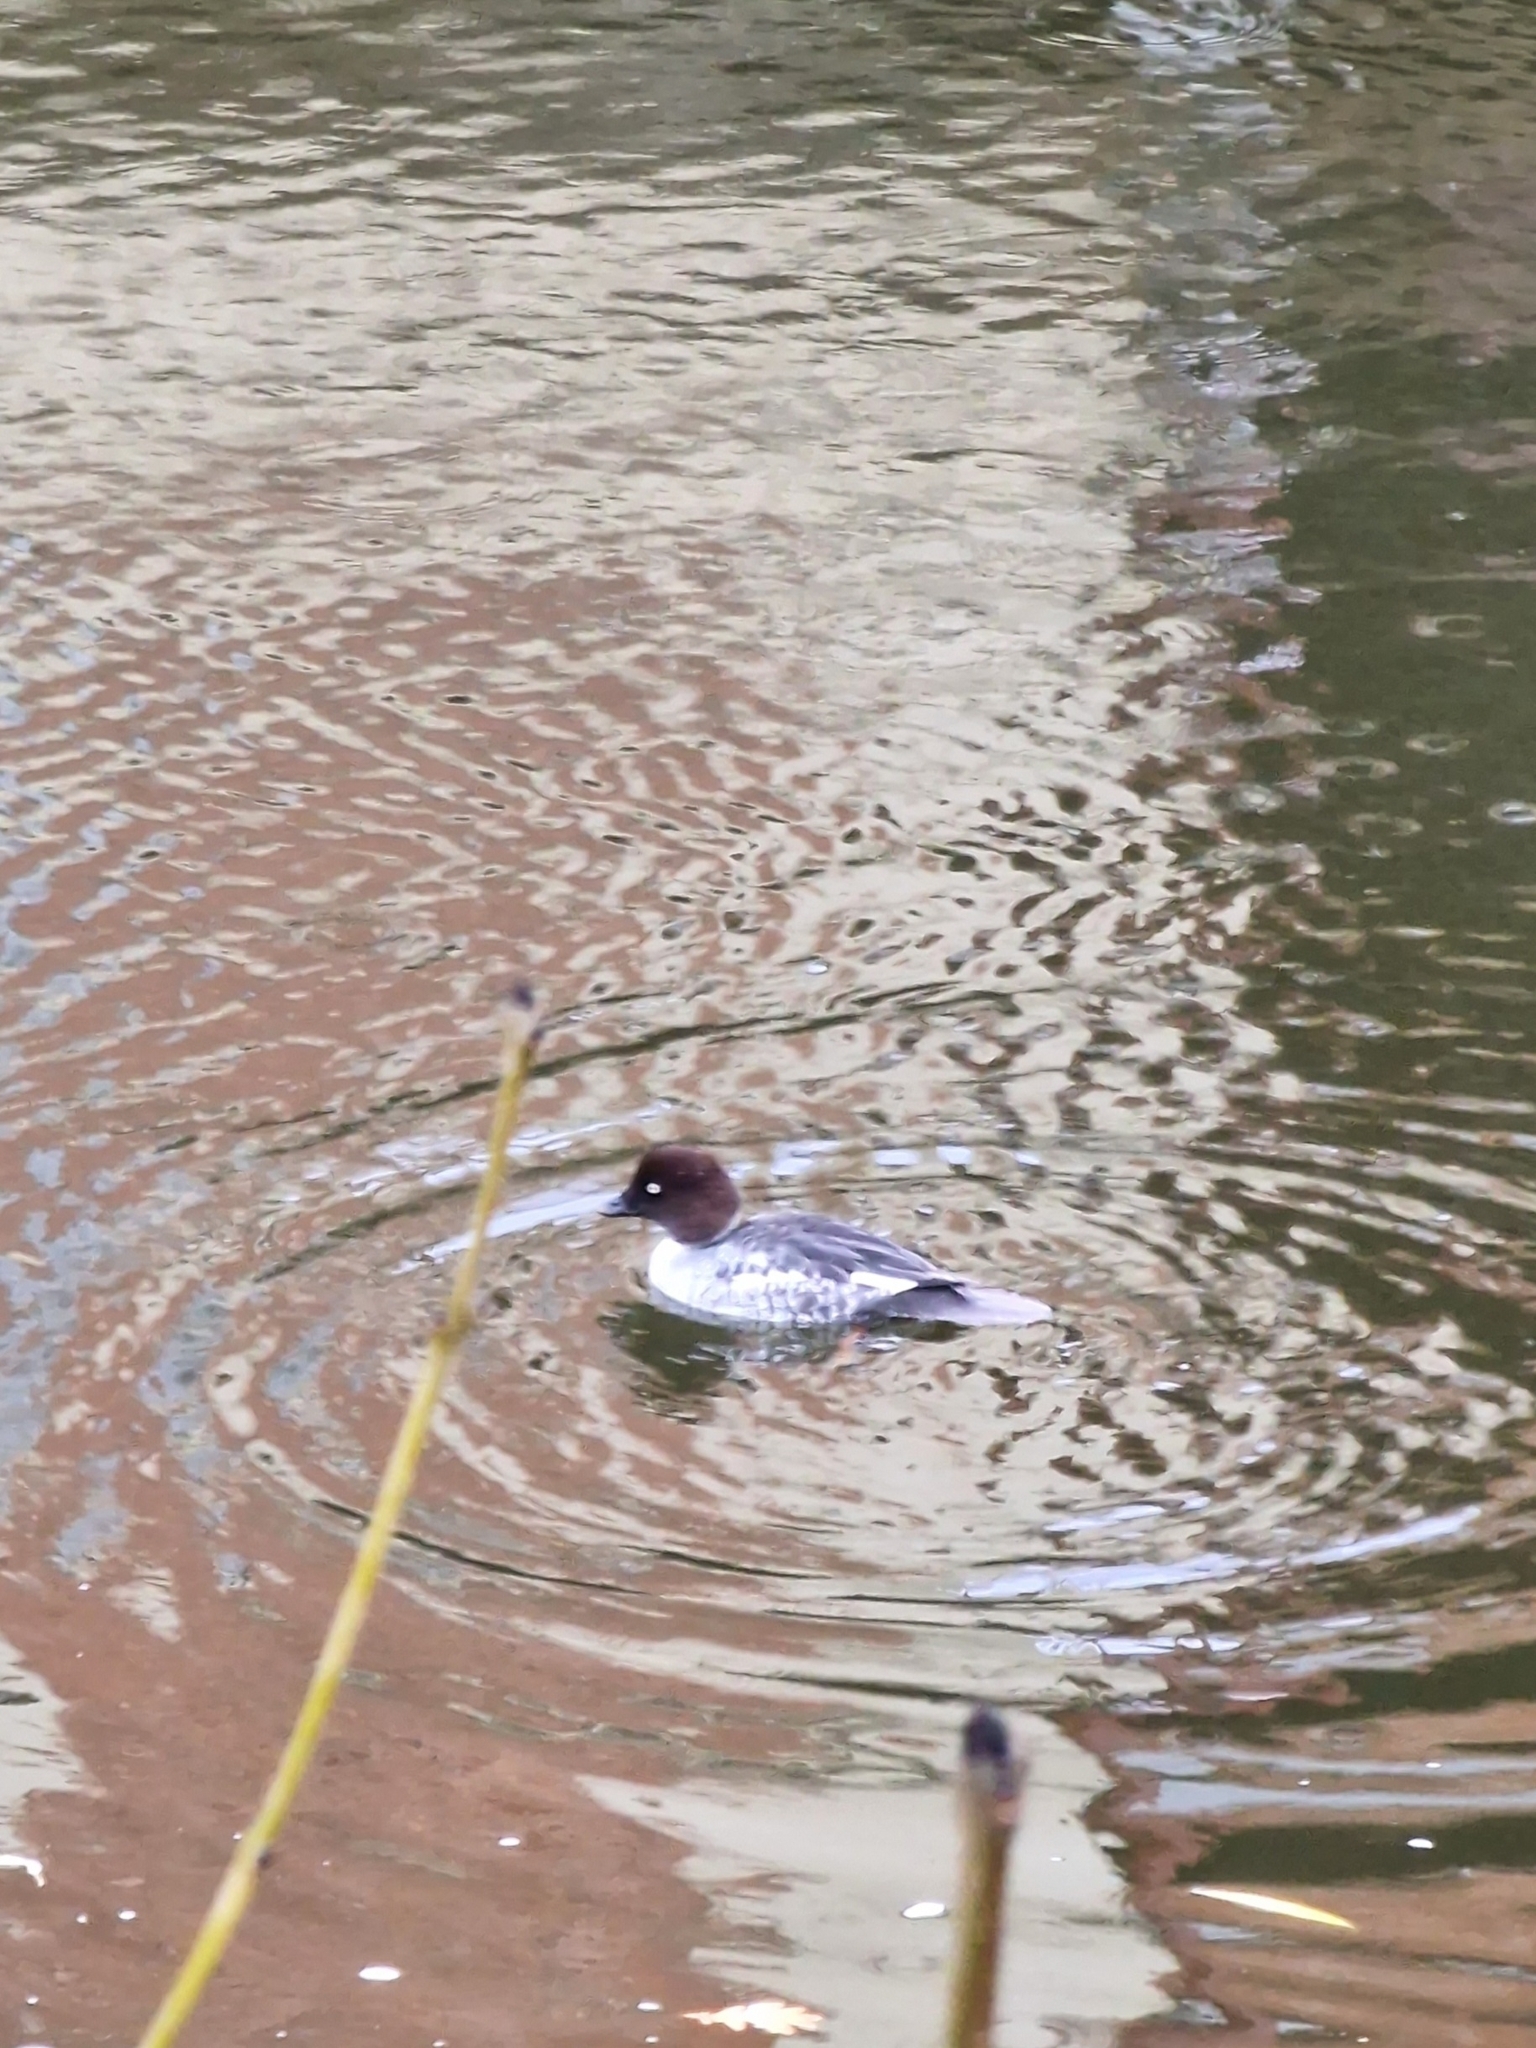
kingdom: Animalia
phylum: Chordata
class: Aves
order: Anseriformes
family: Anatidae
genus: Bucephala
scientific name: Bucephala clangula
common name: Common goldeneye
